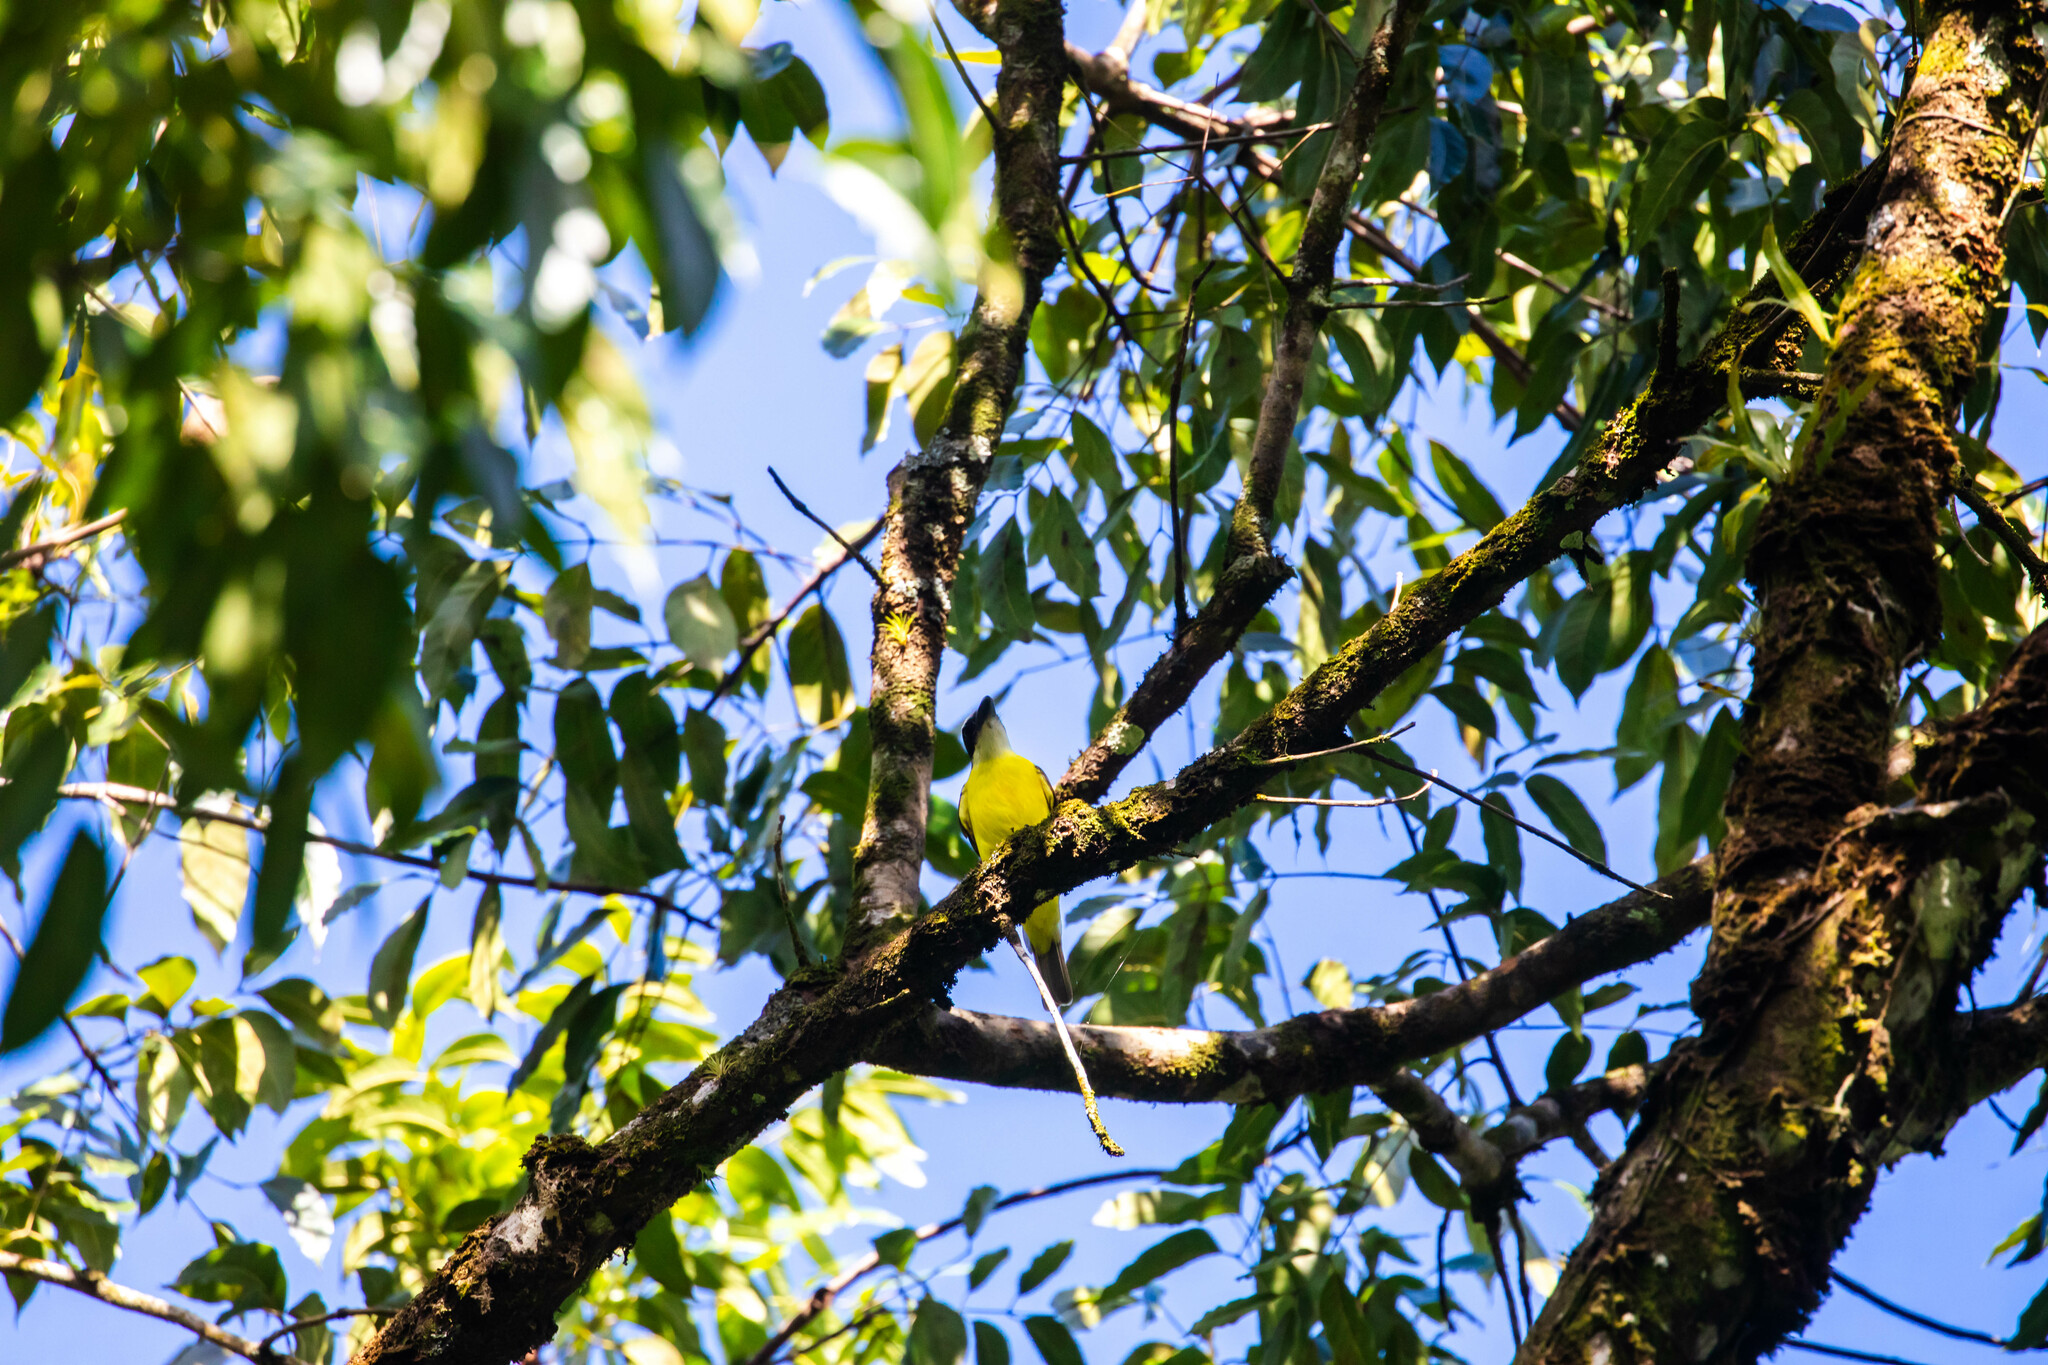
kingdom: Animalia
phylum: Chordata
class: Aves
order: Passeriformes
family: Tyrannidae
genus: Megarynchus
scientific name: Megarynchus pitangua
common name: Boat-billed flycatcher
